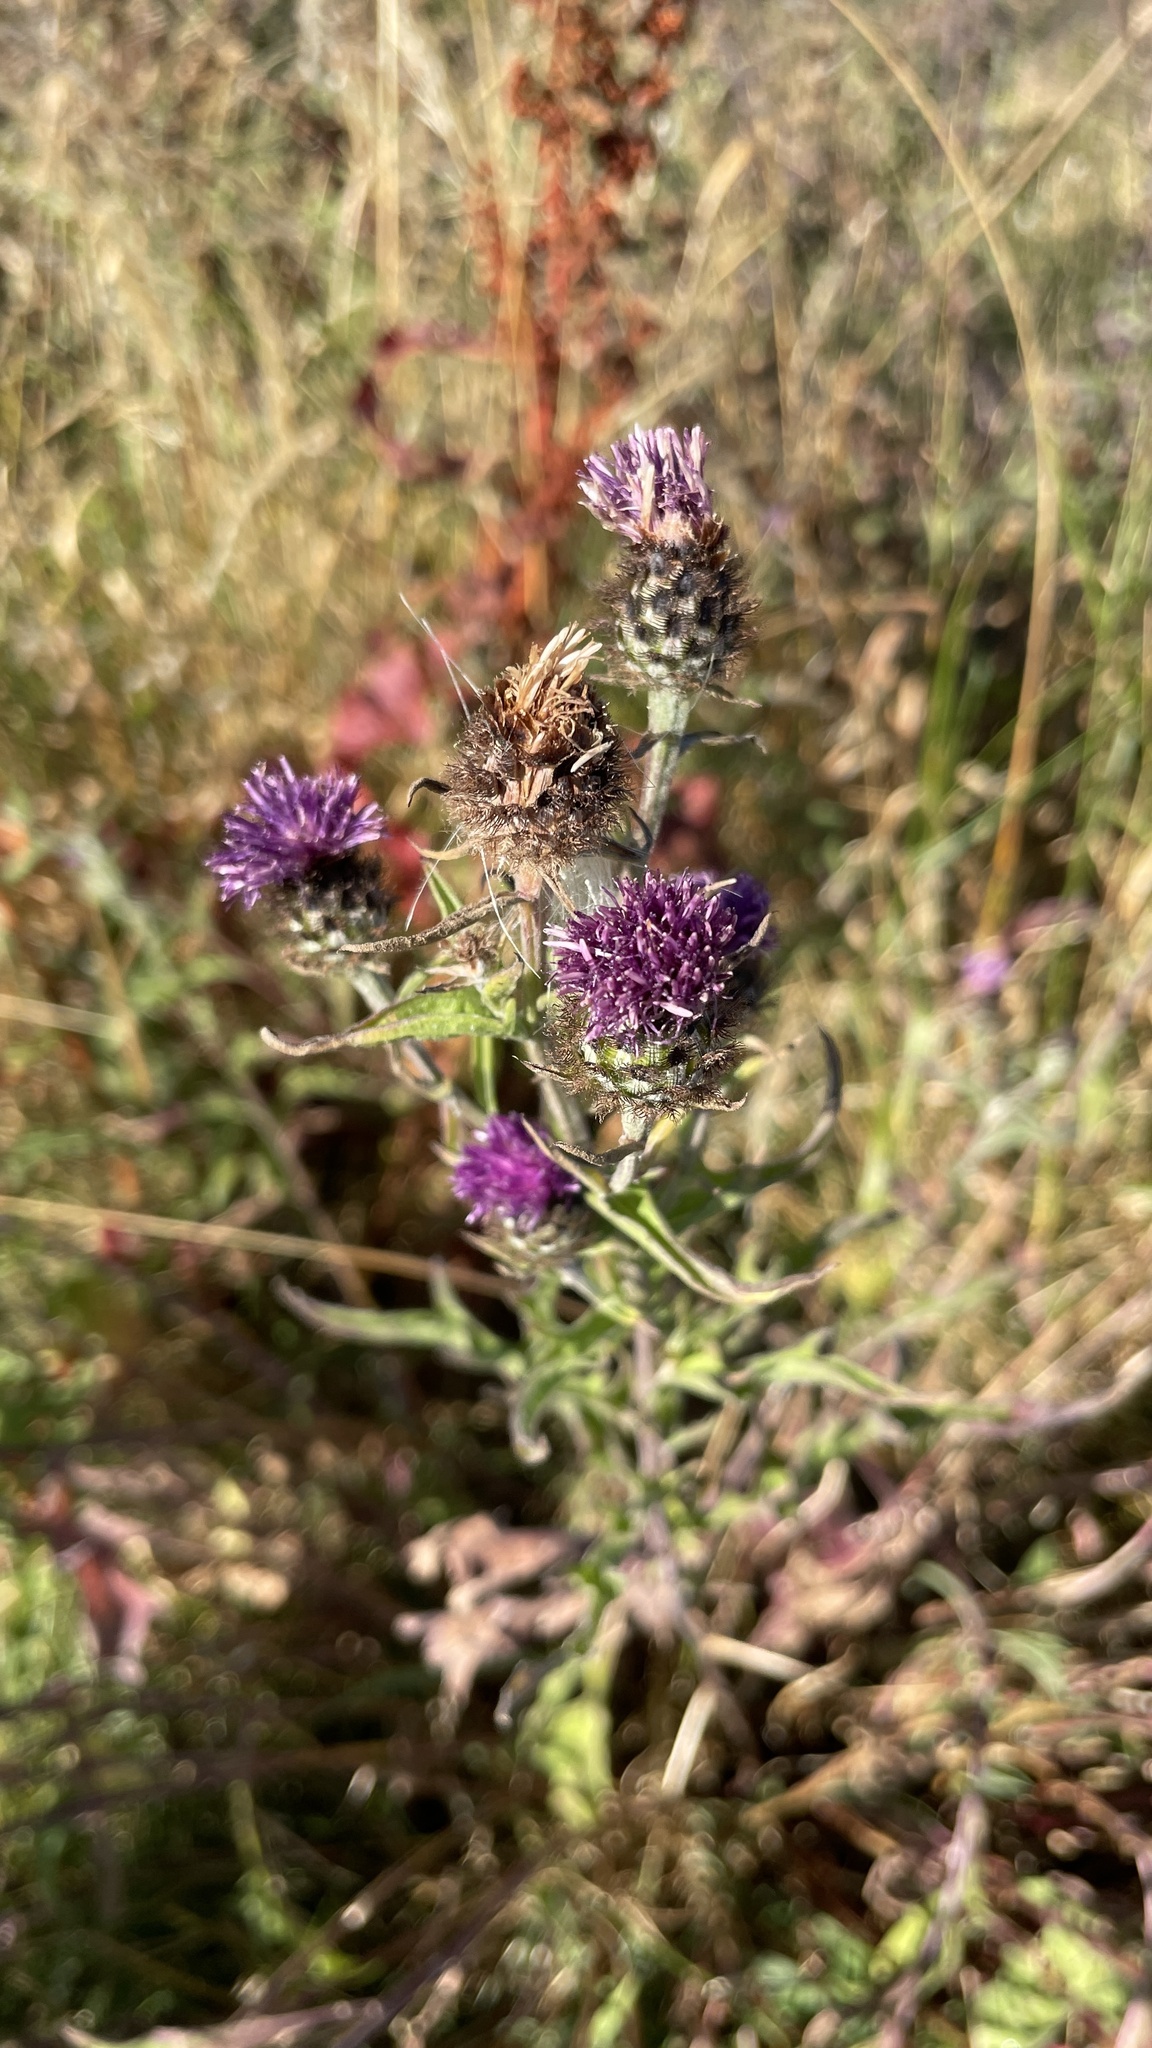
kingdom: Plantae
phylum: Tracheophyta
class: Magnoliopsida
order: Asterales
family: Asteraceae
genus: Centaurea
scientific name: Centaurea nigra
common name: Lesser knapweed
